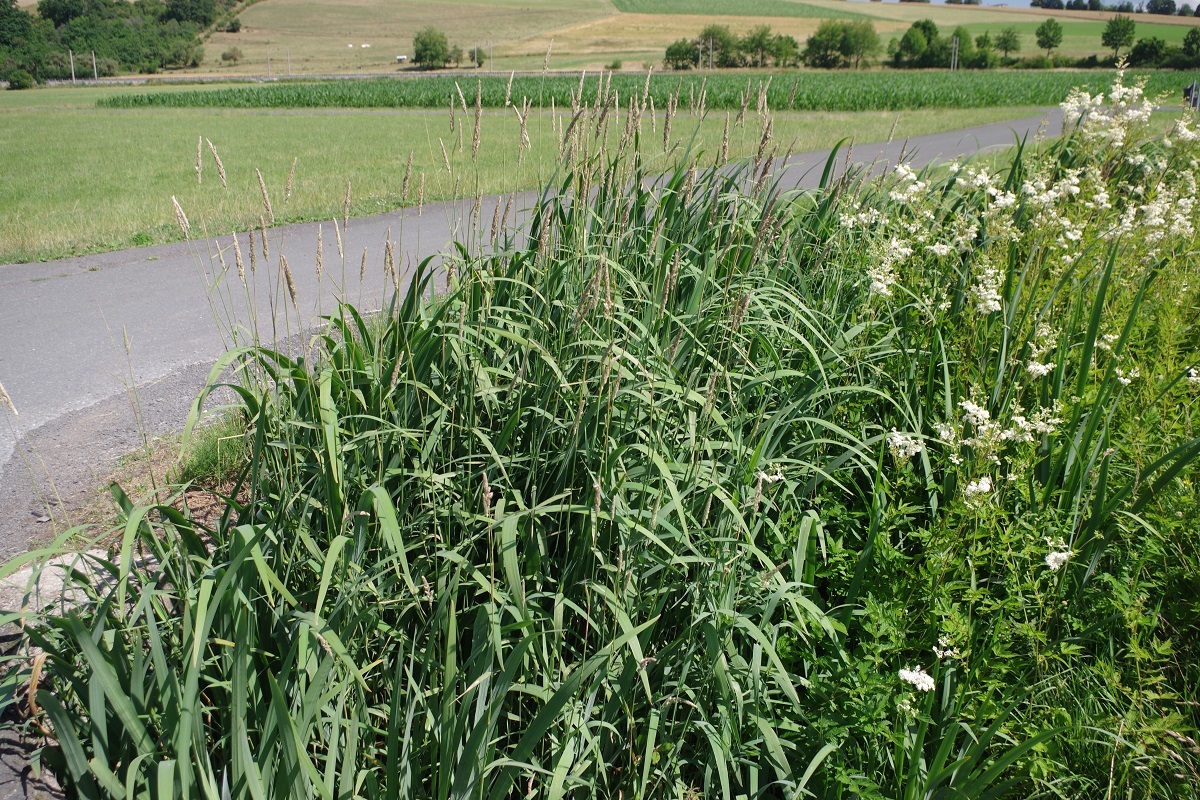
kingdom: Plantae
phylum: Tracheophyta
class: Liliopsida
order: Asparagales
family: Iridaceae
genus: Iris
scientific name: Iris pseudacorus
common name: Yellow flag
